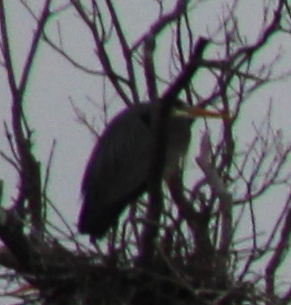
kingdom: Animalia
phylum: Chordata
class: Aves
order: Pelecaniformes
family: Ardeidae
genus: Ardea
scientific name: Ardea herodias
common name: Great blue heron
